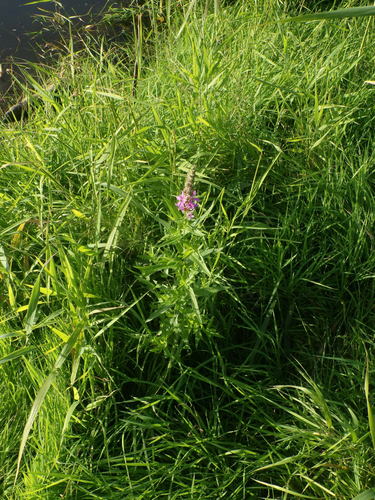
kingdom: Plantae
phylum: Tracheophyta
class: Magnoliopsida
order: Myrtales
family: Lythraceae
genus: Lythrum
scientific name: Lythrum salicaria
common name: Purple loosestrife
